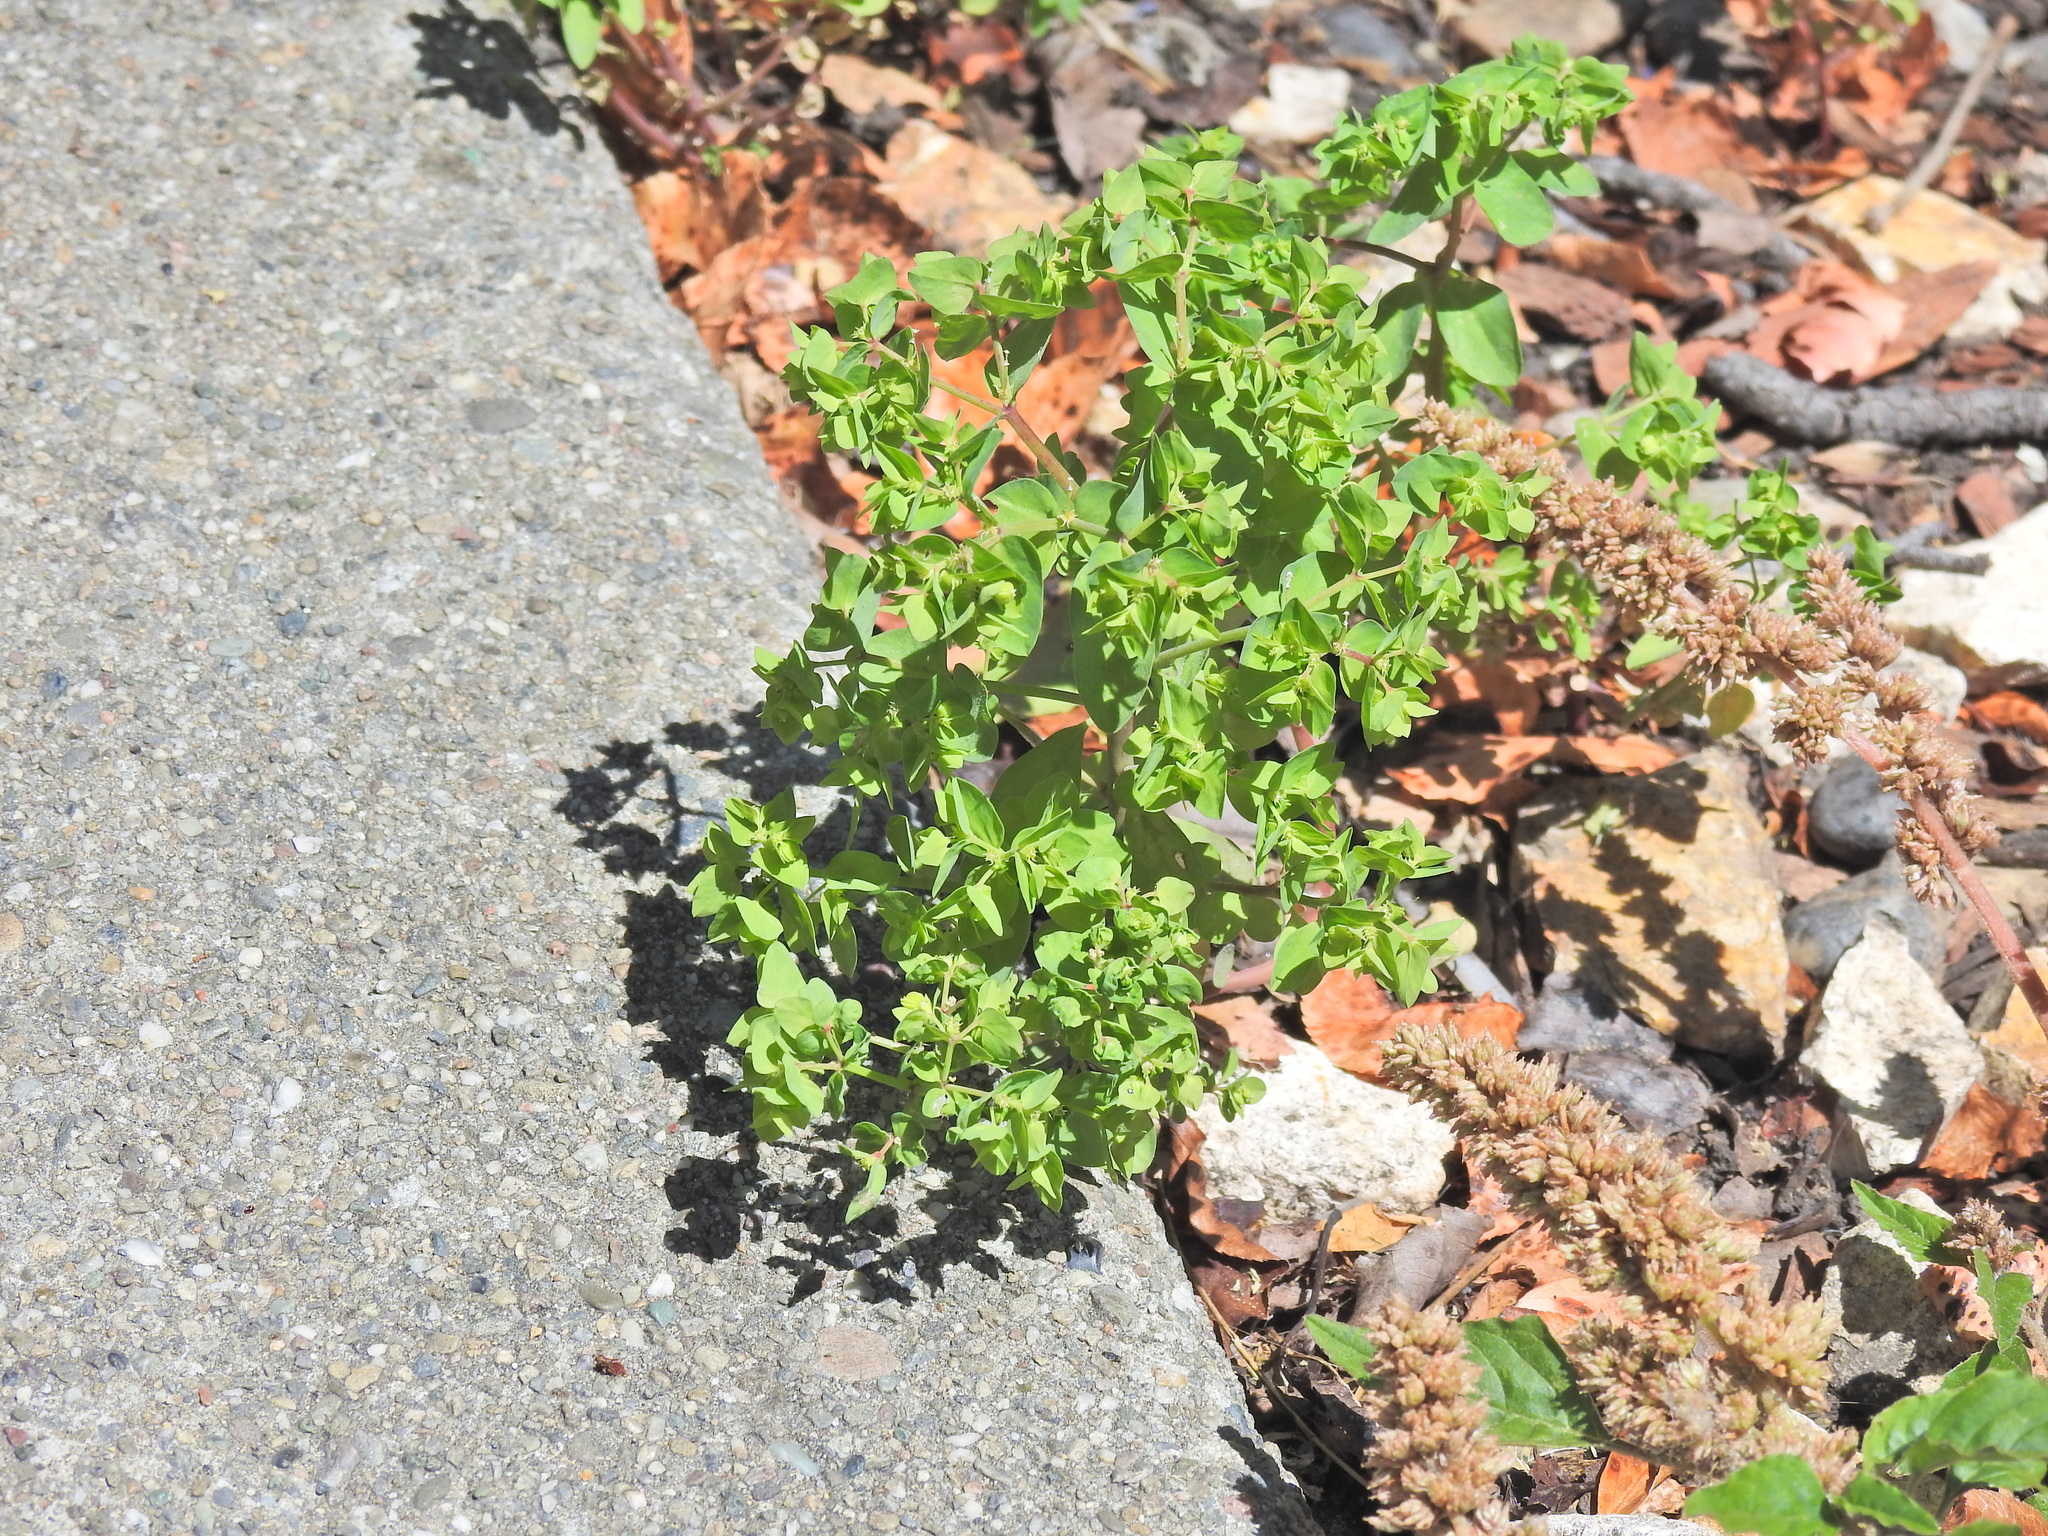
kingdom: Plantae
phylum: Tracheophyta
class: Magnoliopsida
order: Malpighiales
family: Euphorbiaceae
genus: Euphorbia
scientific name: Euphorbia peplus
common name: Petty spurge
